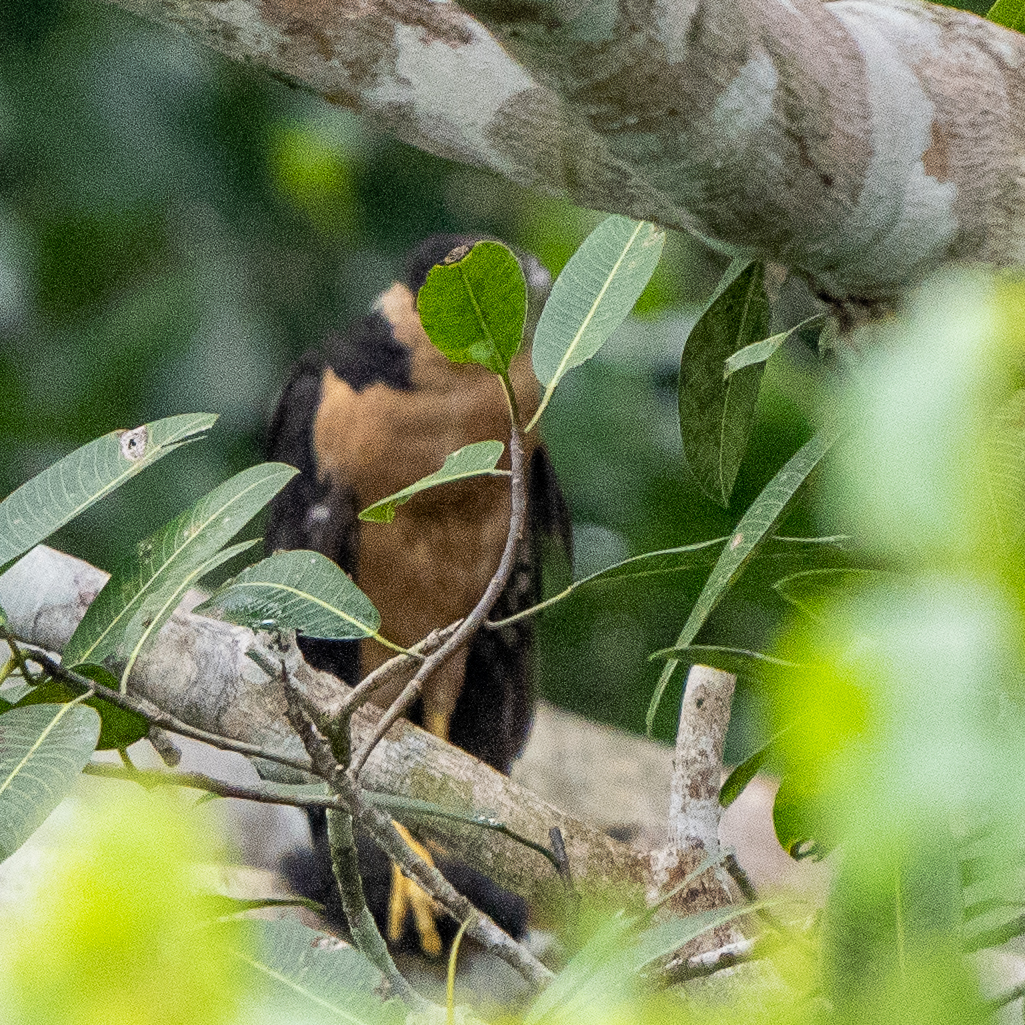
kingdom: Animalia
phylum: Chordata
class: Aves
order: Falconiformes
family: Falconidae
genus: Micrastur
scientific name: Micrastur semitorquatus
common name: Collared forest-falcon
